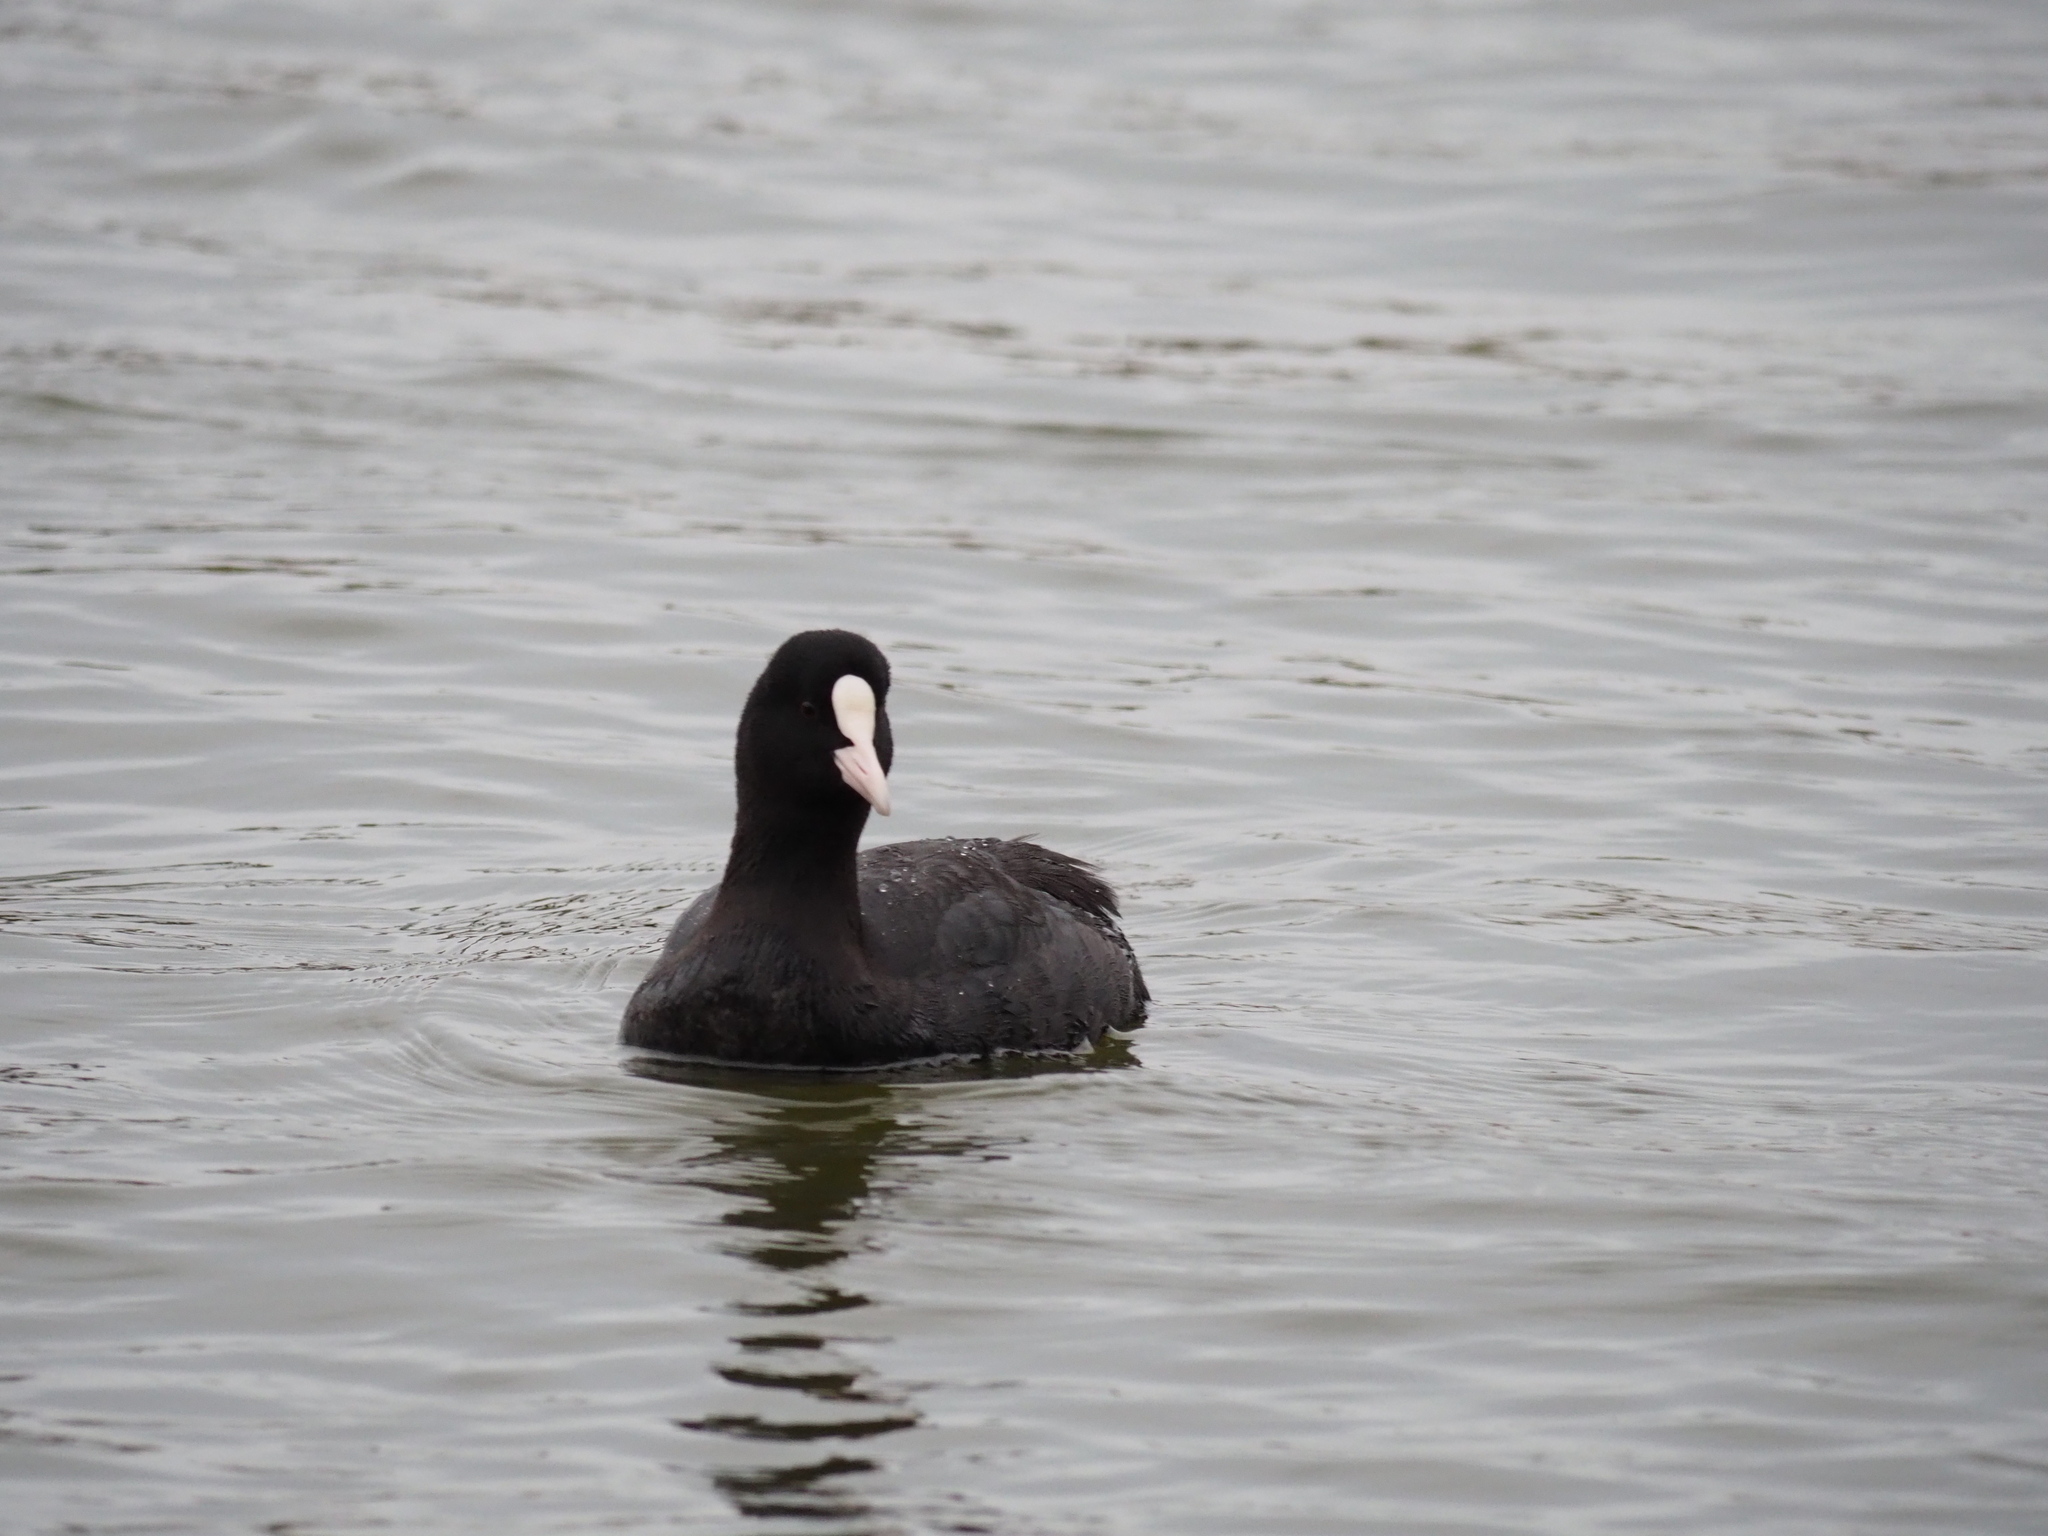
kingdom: Animalia
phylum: Chordata
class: Aves
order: Gruiformes
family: Rallidae
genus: Fulica
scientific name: Fulica atra
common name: Eurasian coot
